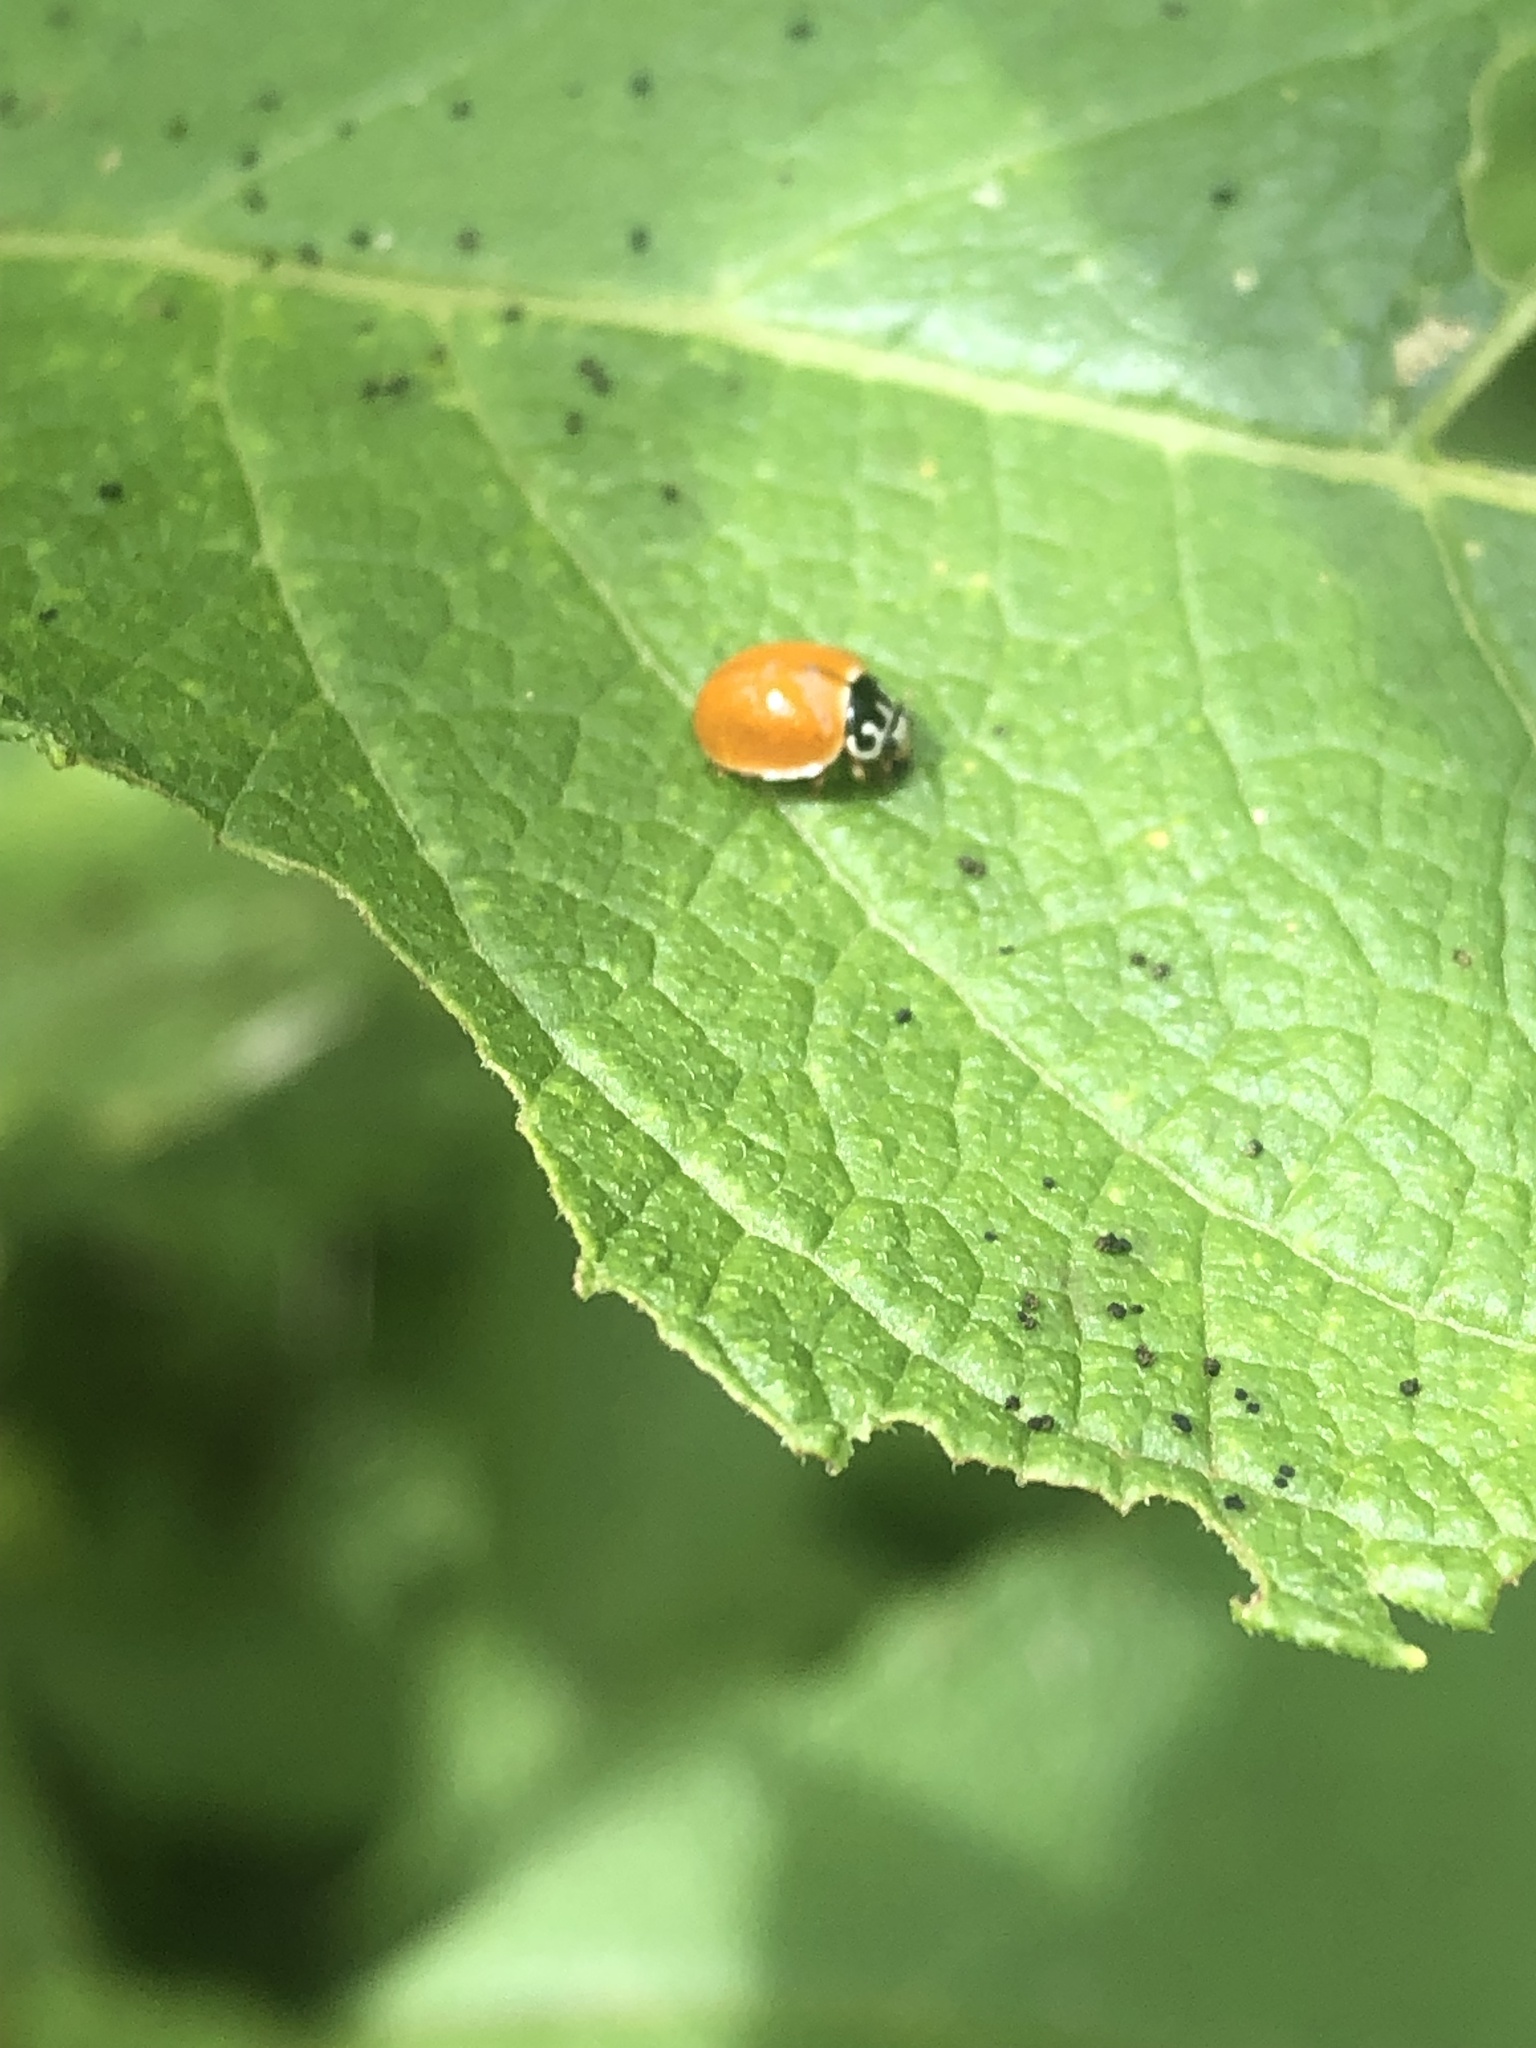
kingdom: Animalia
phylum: Arthropoda
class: Insecta
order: Coleoptera
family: Coccinellidae
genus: Cycloneda
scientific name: Cycloneda munda
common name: Polished lady beetle
